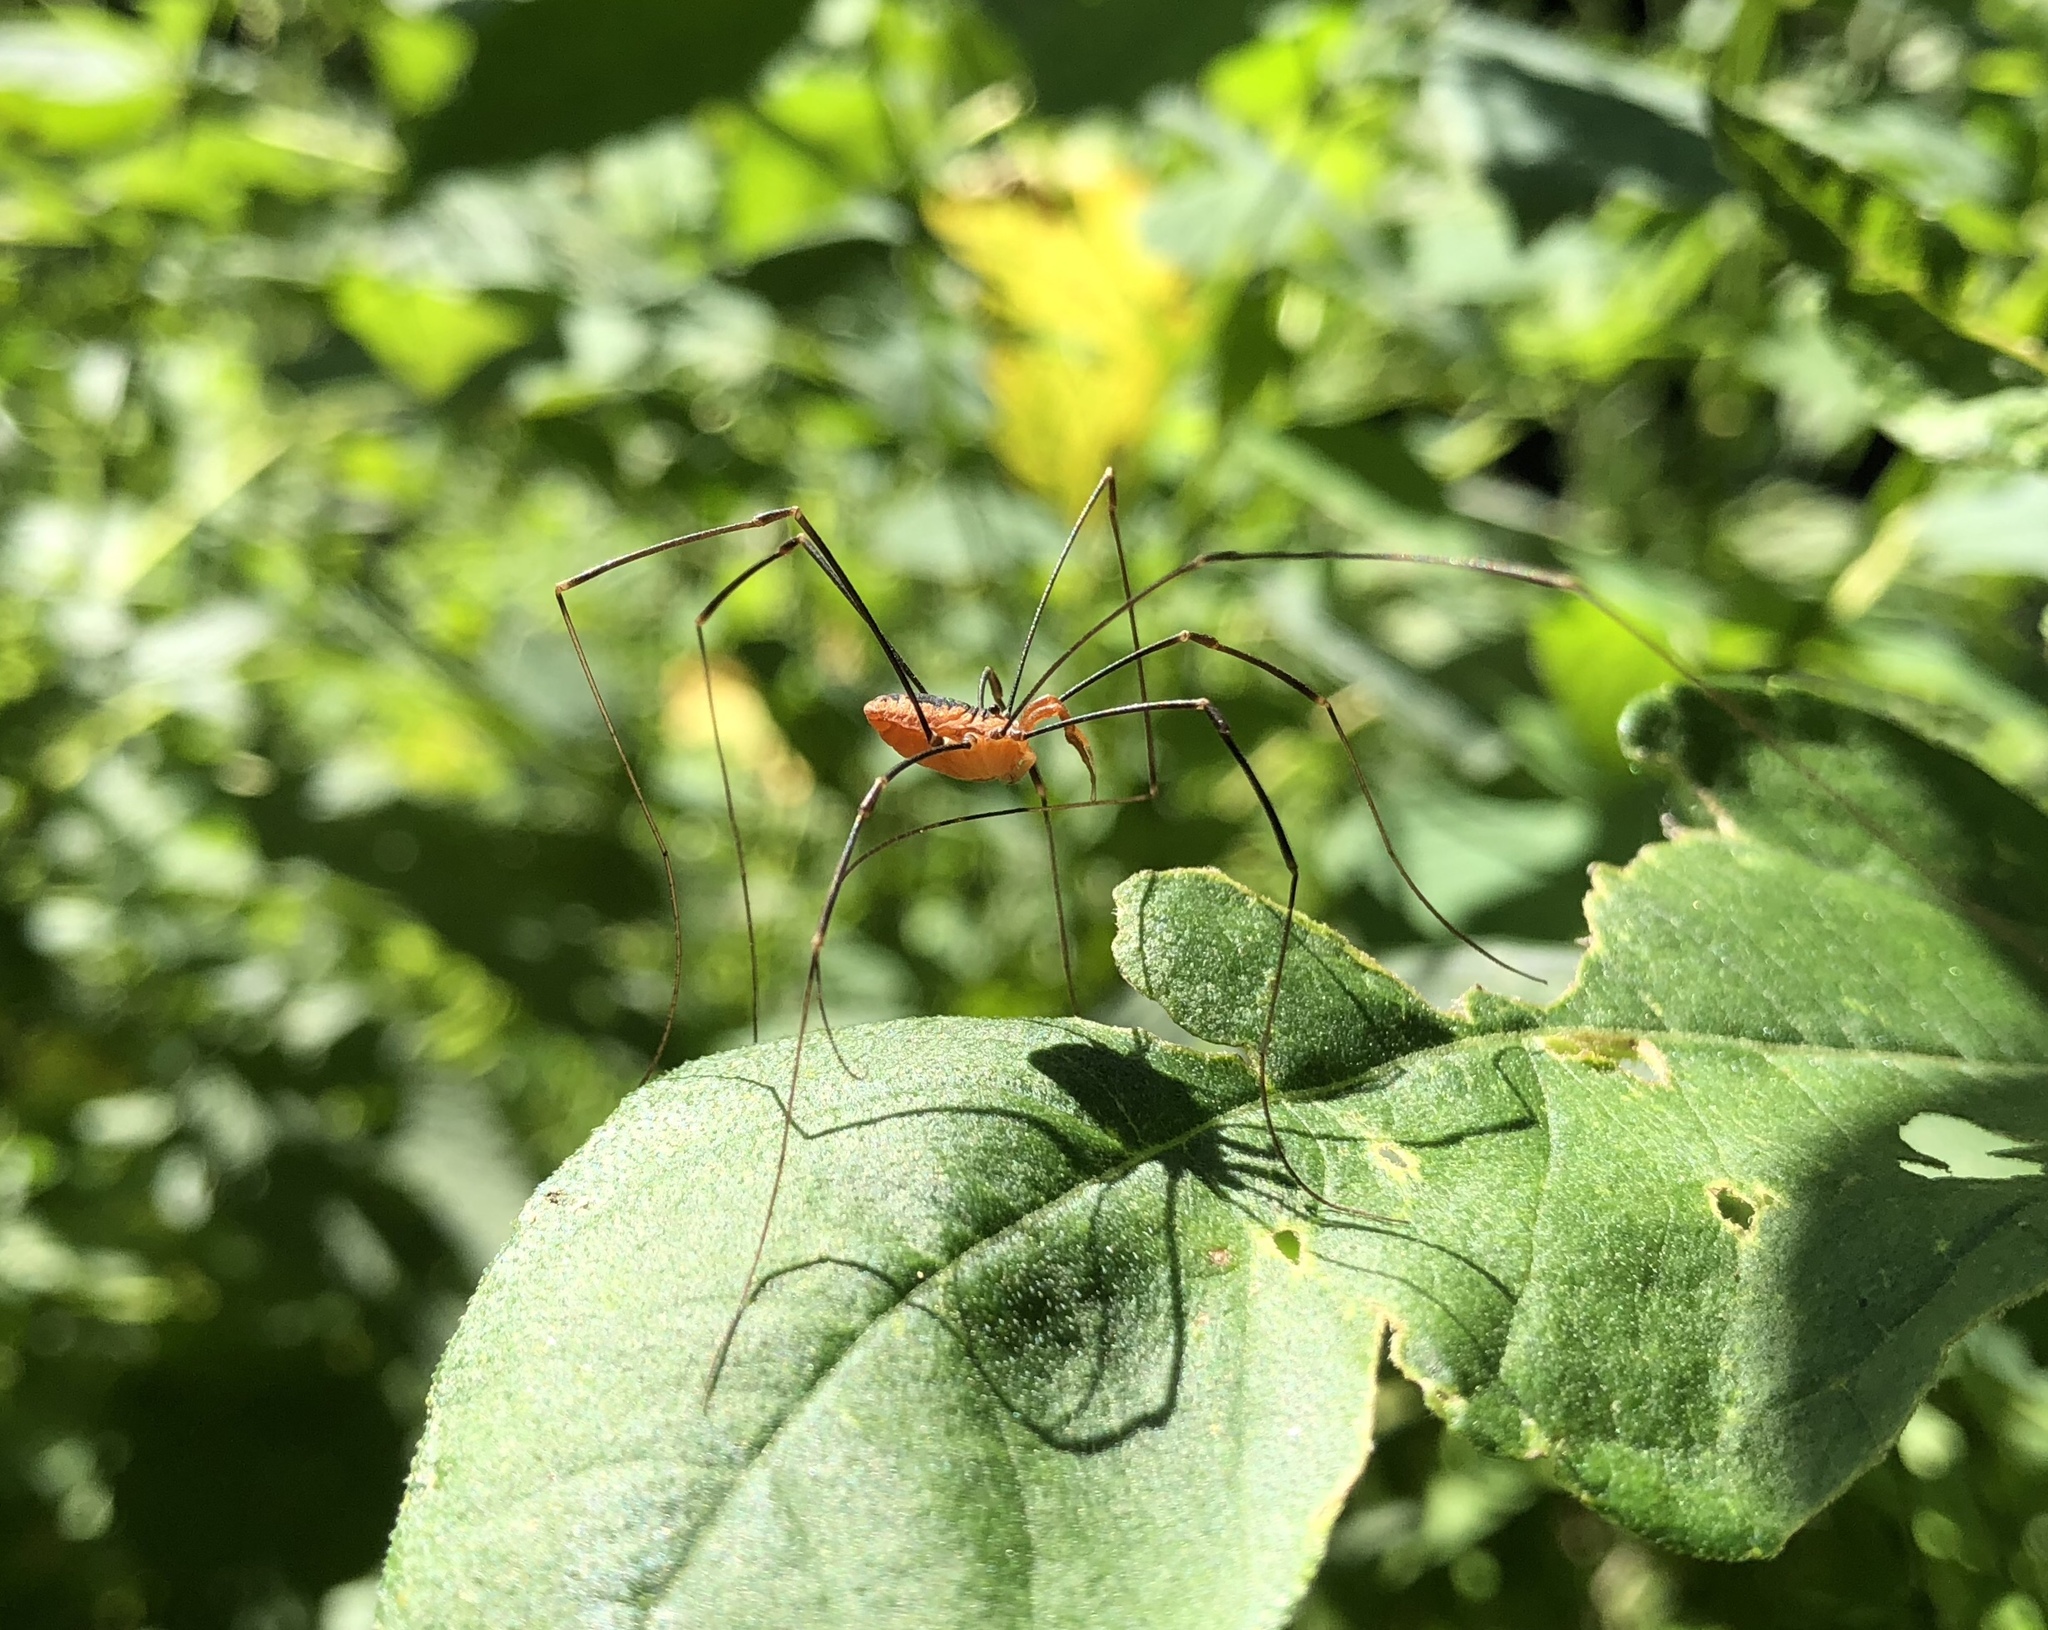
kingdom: Animalia
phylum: Arthropoda
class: Arachnida
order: Opiliones
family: Sclerosomatidae
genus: Leiobunum
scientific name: Leiobunum vittatum
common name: Eastern harvestman
